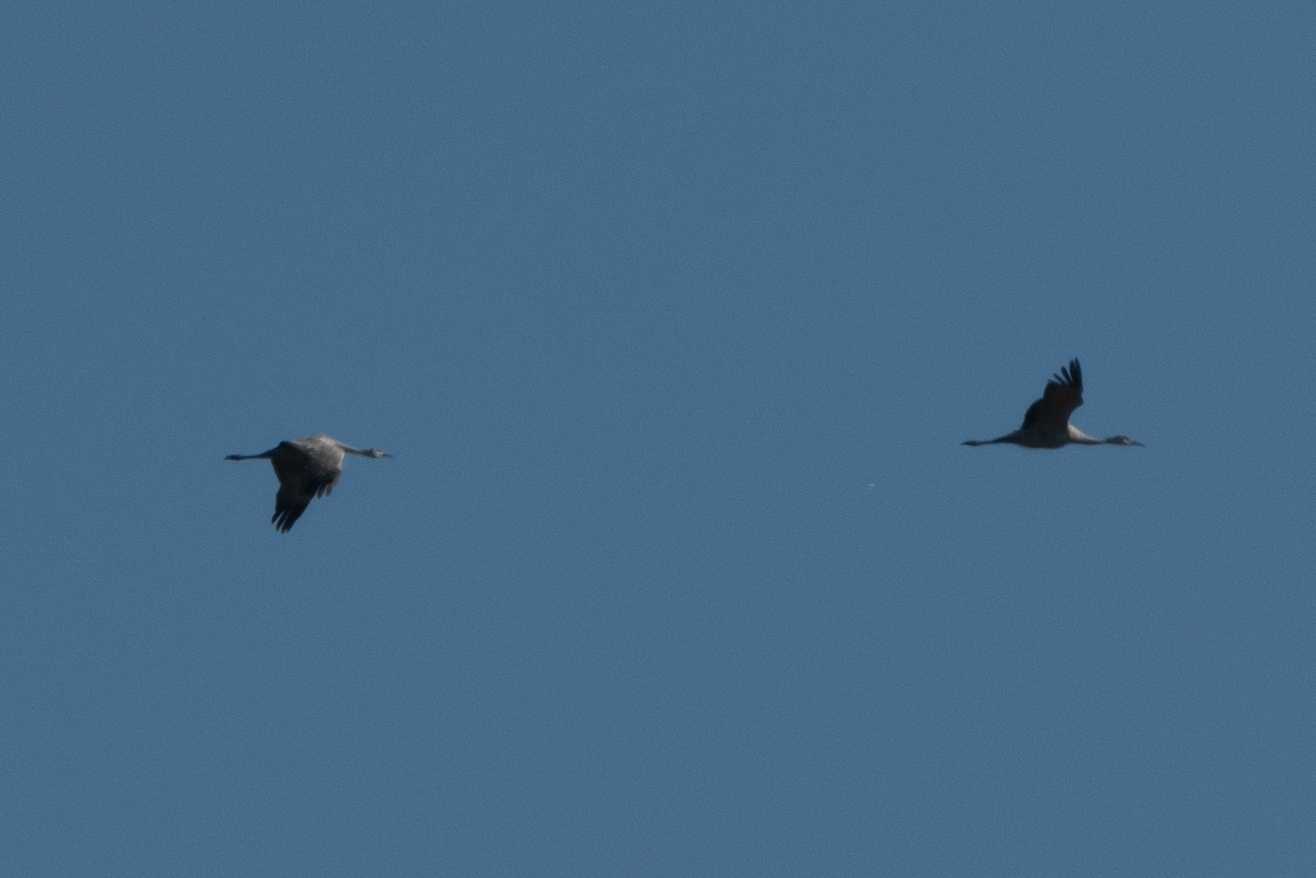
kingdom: Animalia
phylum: Chordata
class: Aves
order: Gruiformes
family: Gruidae
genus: Grus
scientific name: Grus canadensis
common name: Sandhill crane
